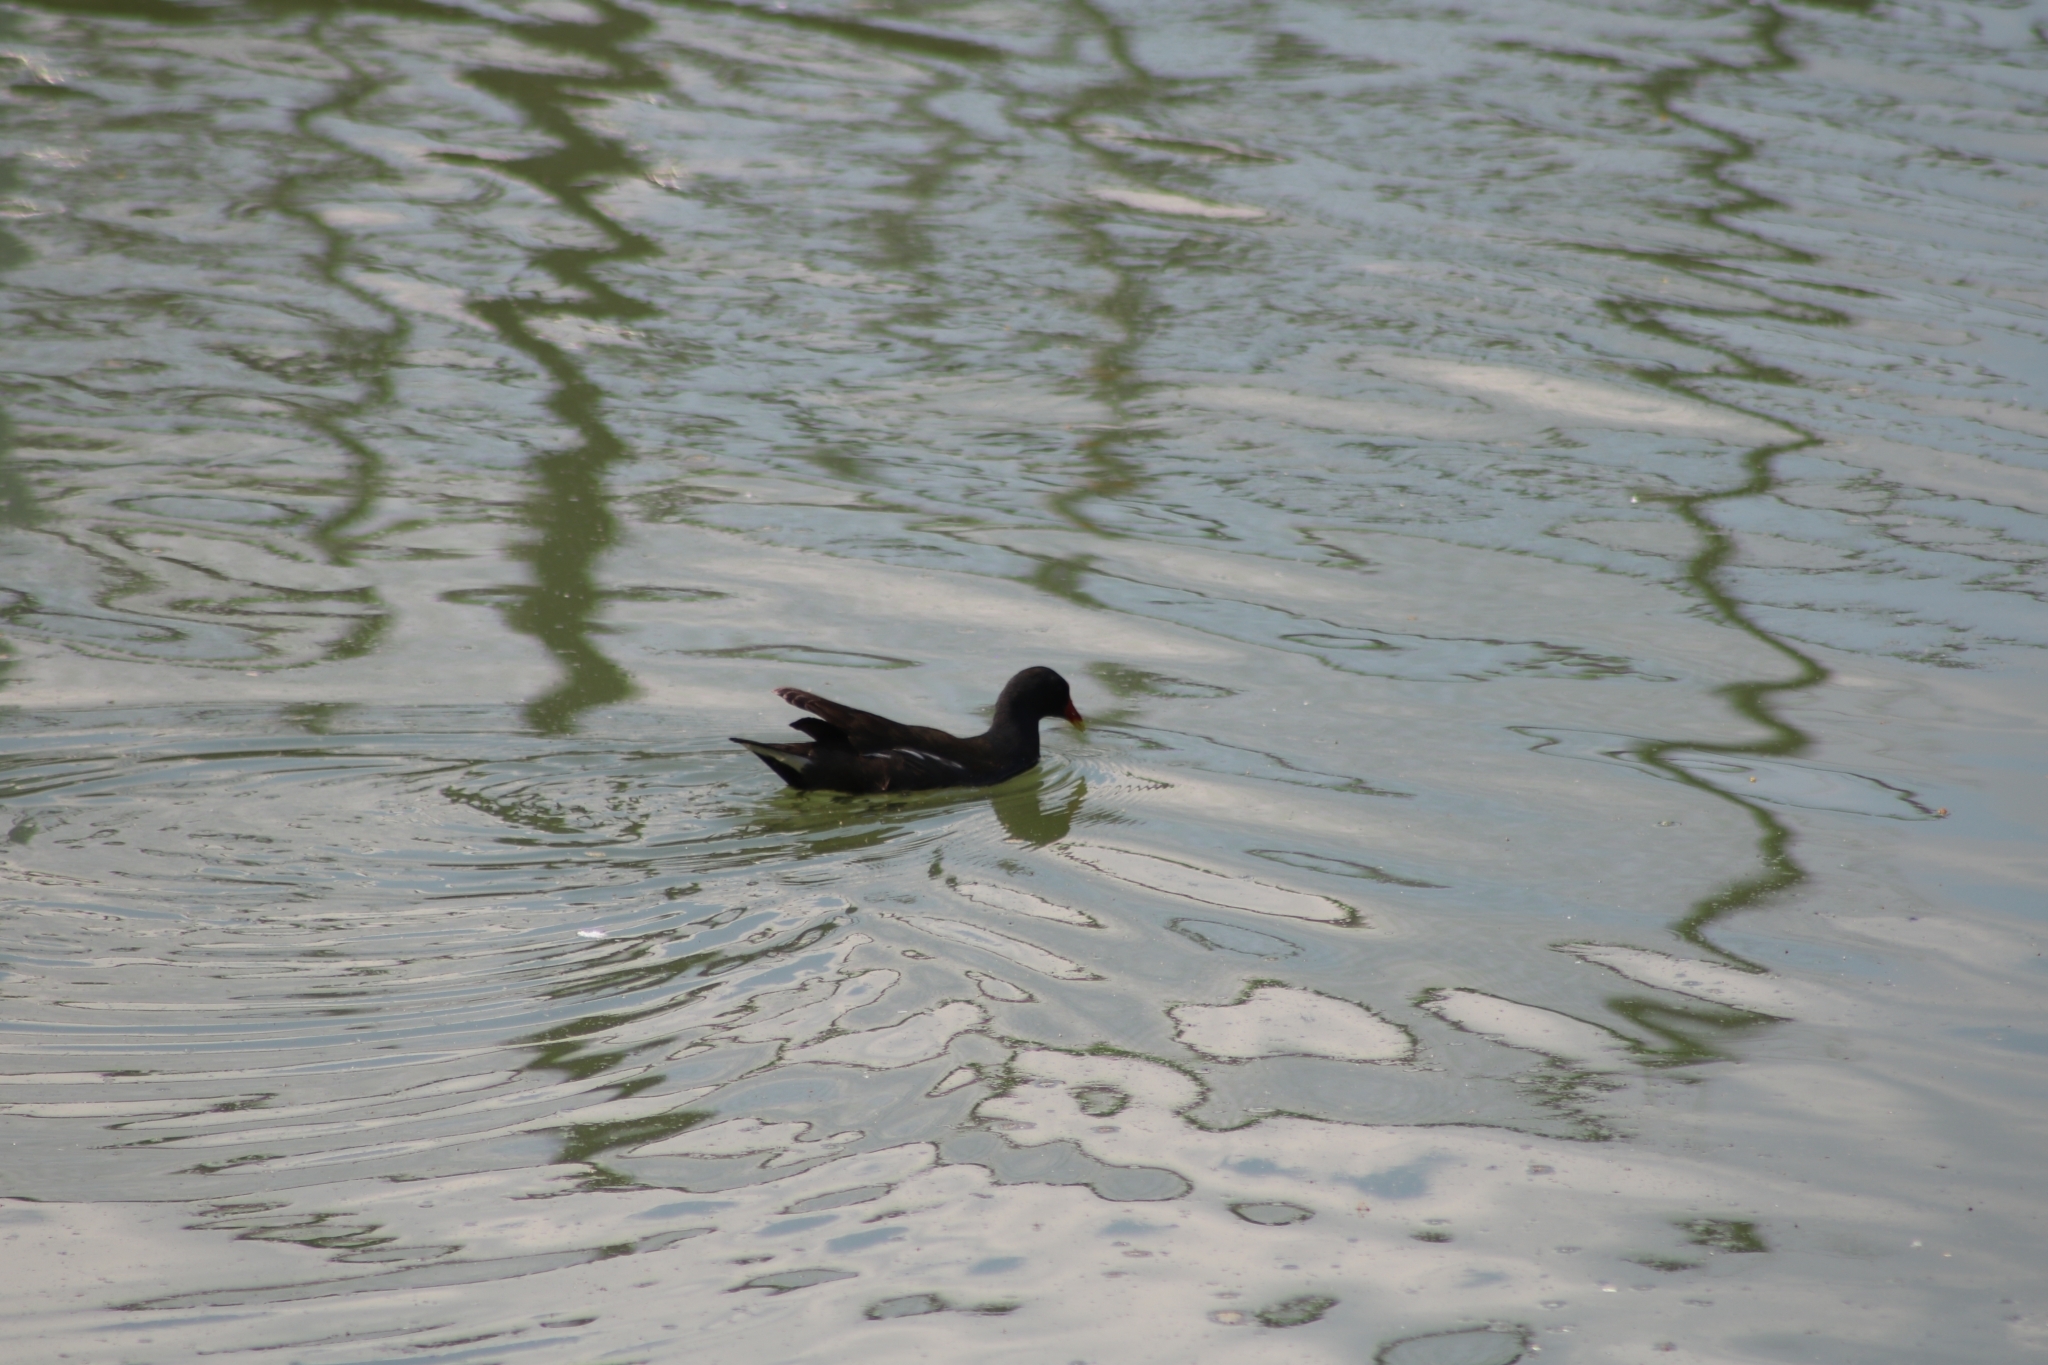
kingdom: Animalia
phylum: Chordata
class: Aves
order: Gruiformes
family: Rallidae
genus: Gallinula
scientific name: Gallinula chloropus
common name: Common moorhen
